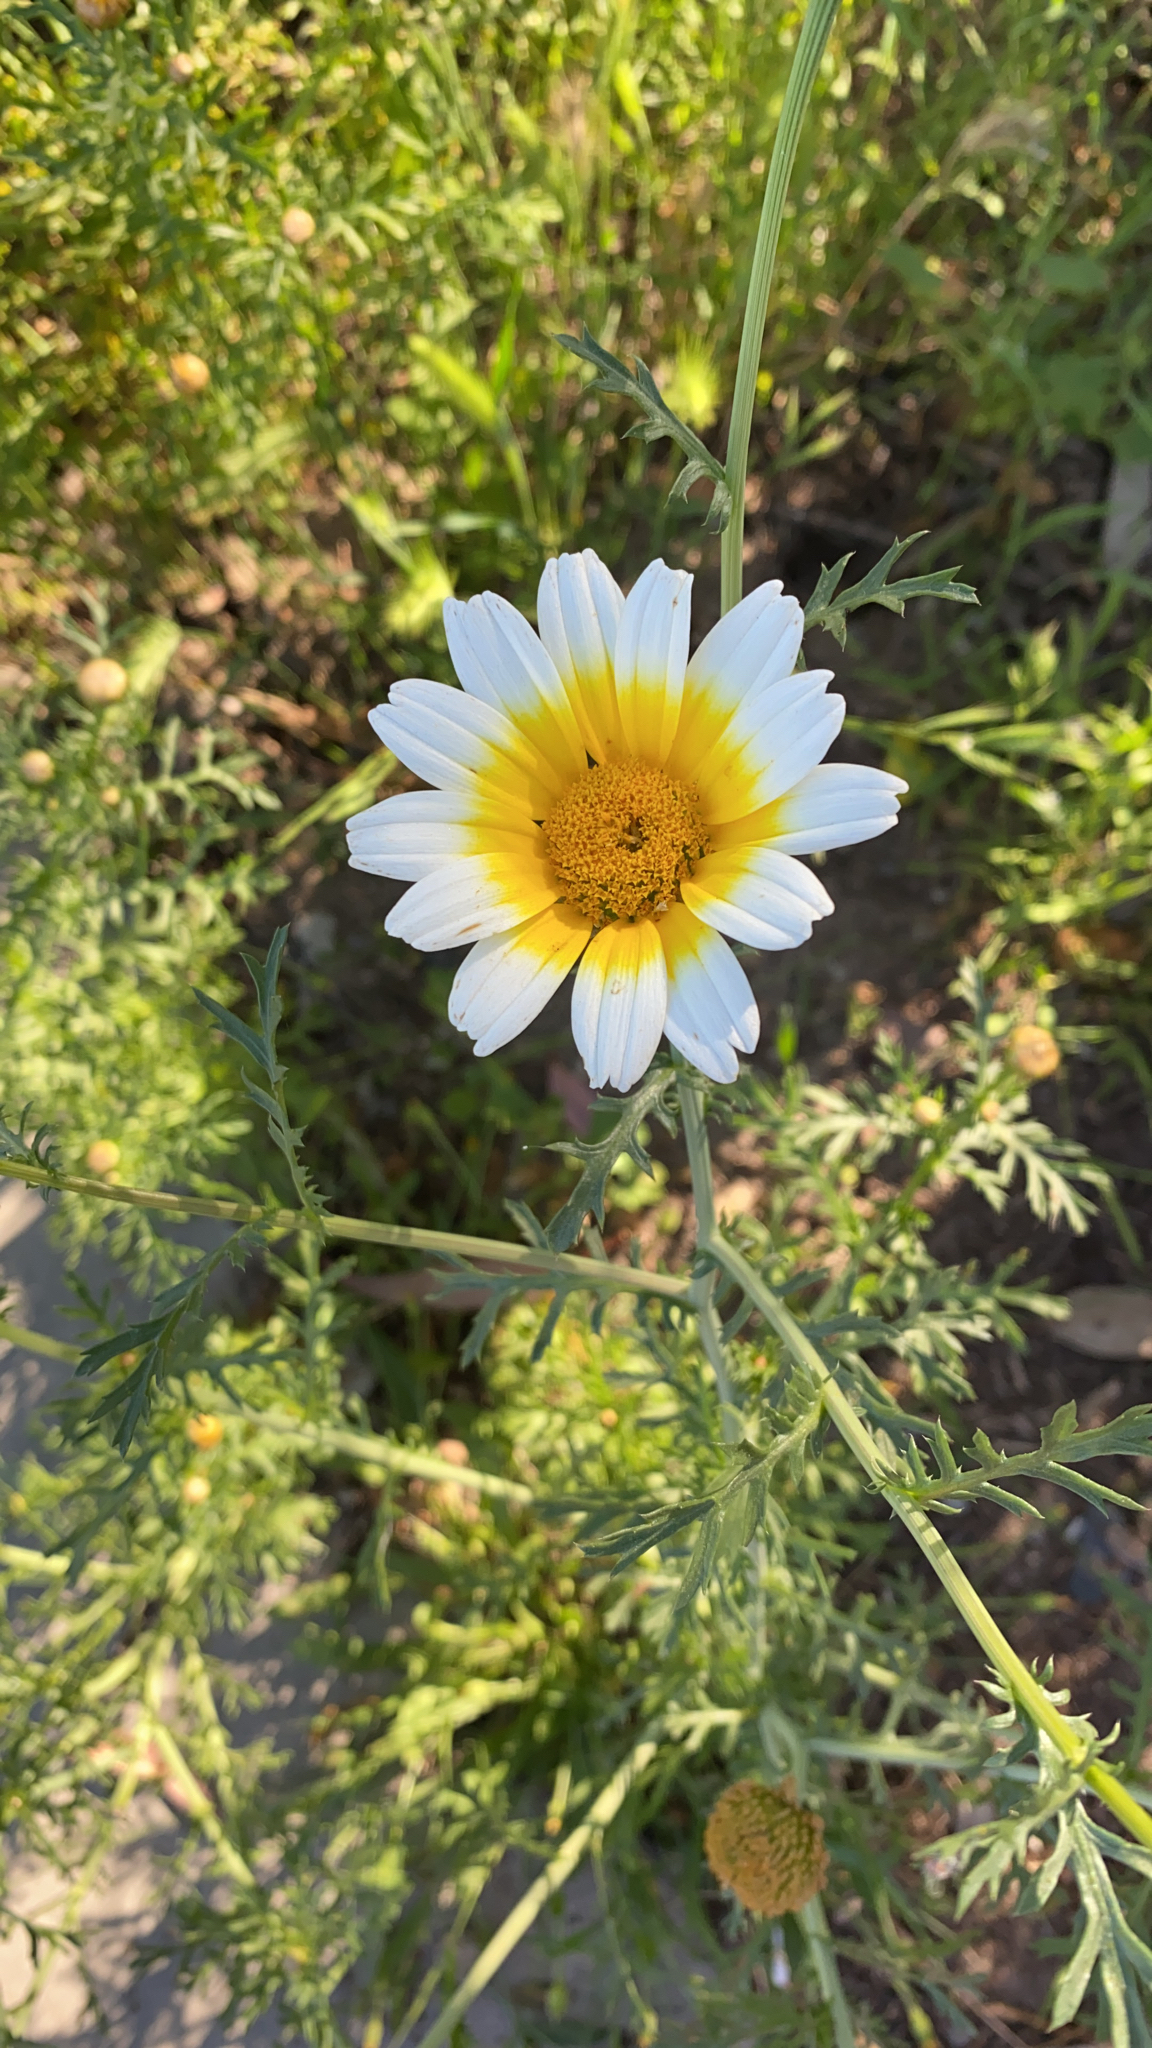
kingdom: Plantae
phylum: Tracheophyta
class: Magnoliopsida
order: Asterales
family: Asteraceae
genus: Glebionis
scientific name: Glebionis coronaria
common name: Crowndaisy
